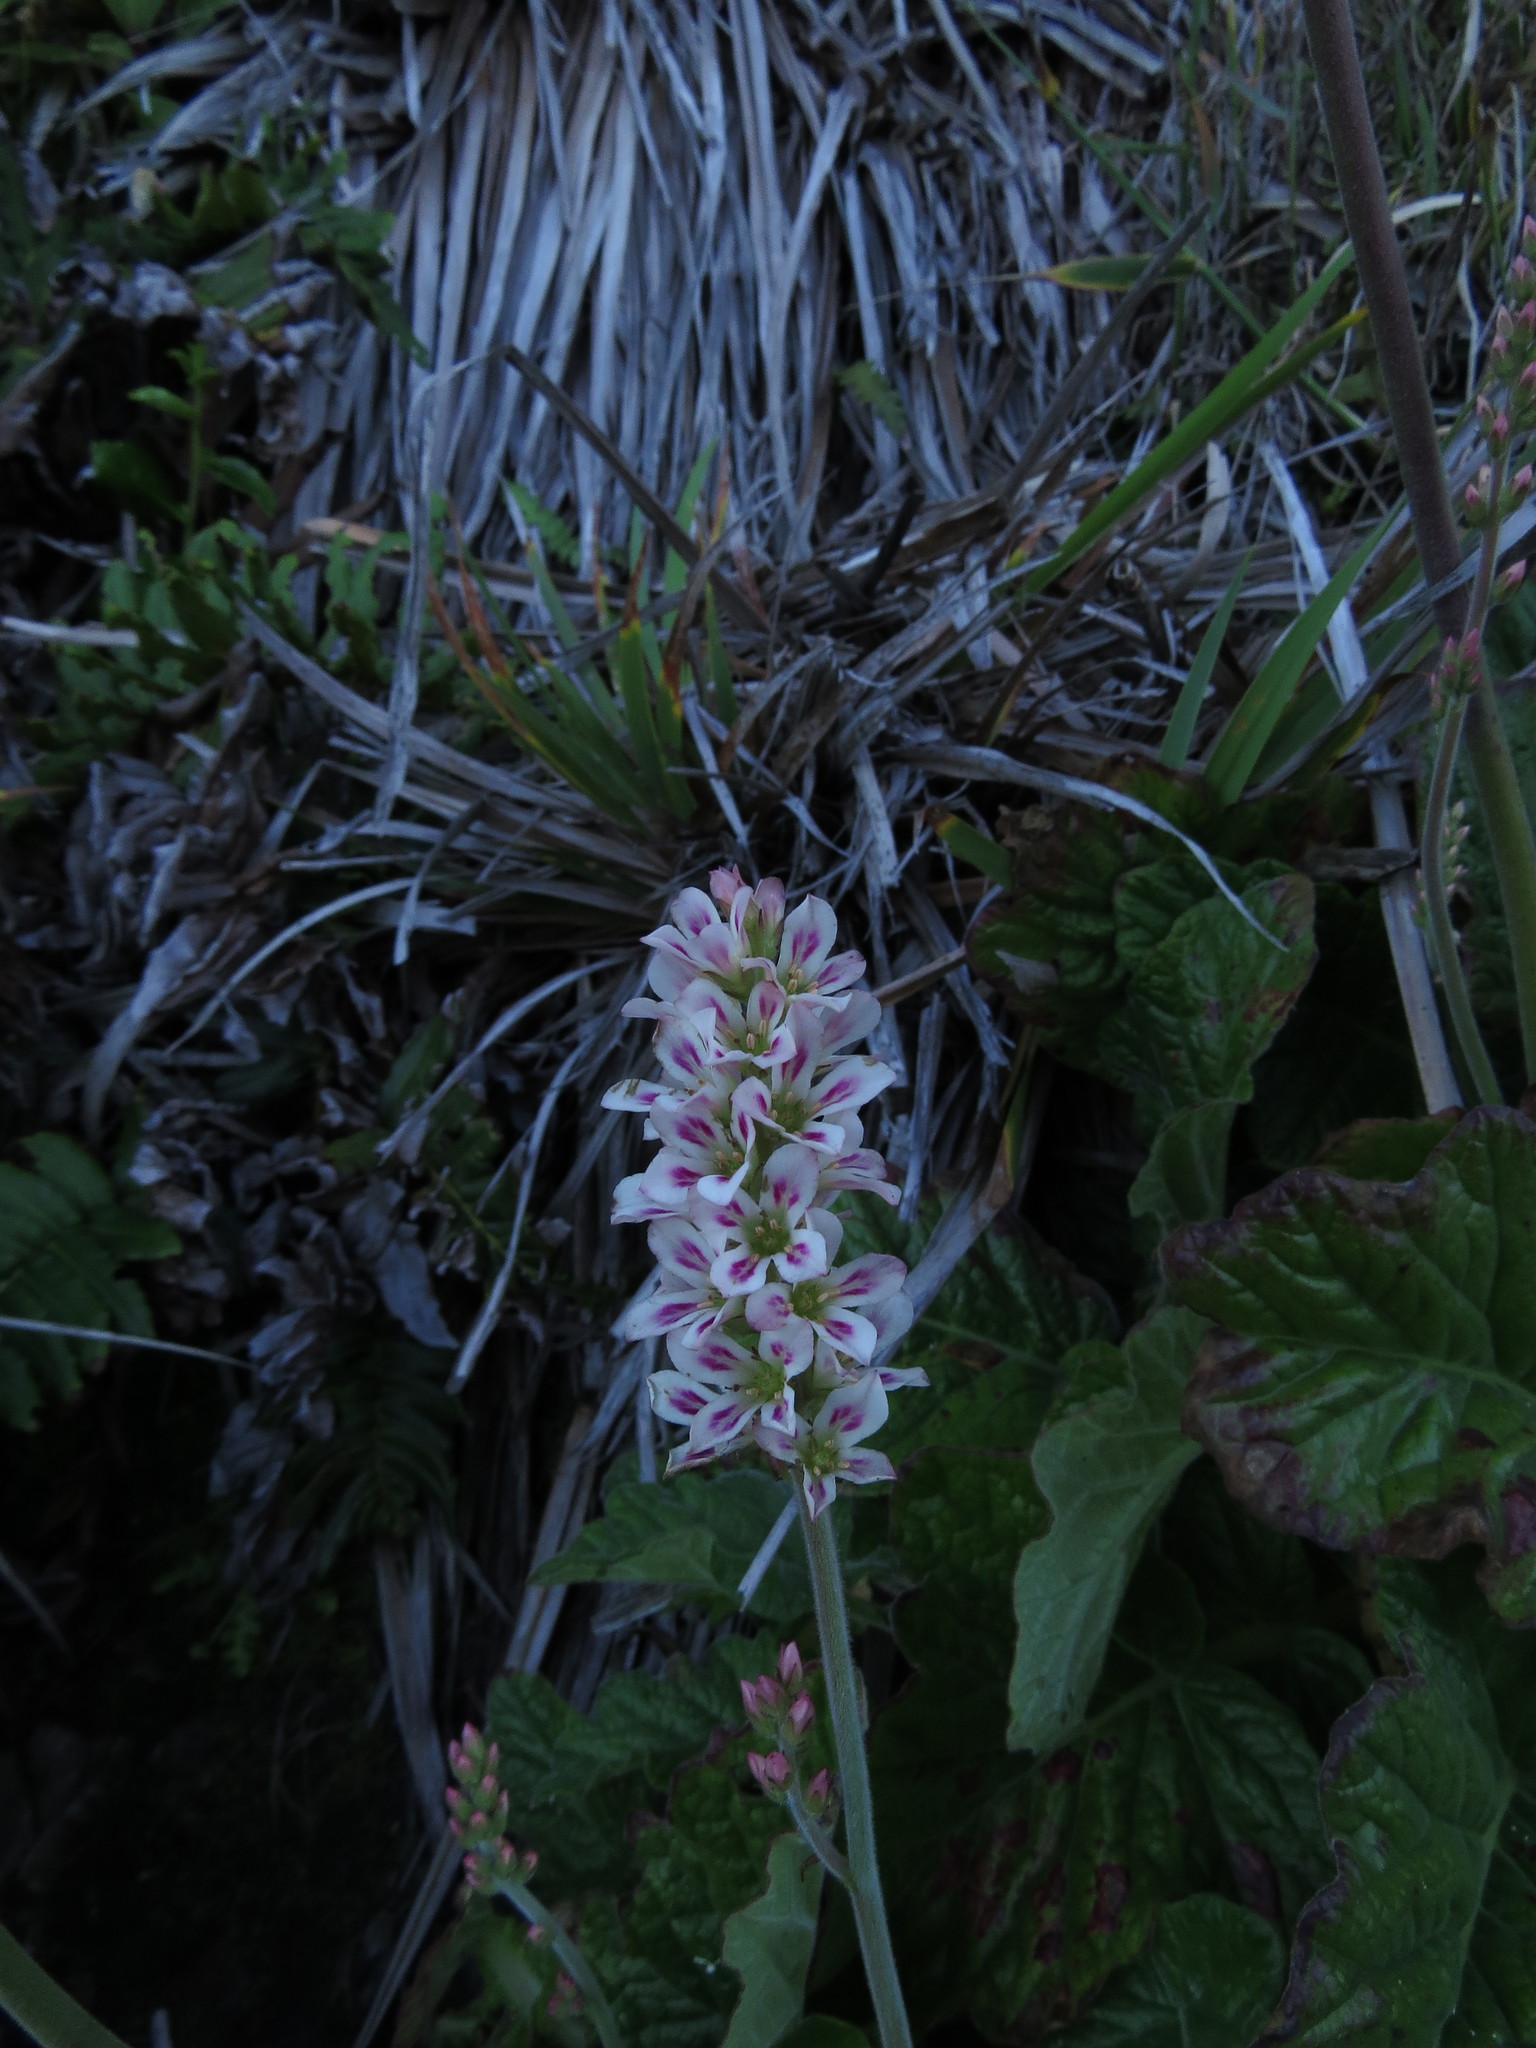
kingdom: Plantae
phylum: Tracheophyta
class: Magnoliopsida
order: Geraniales
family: Francoaceae
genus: Francoa
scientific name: Francoa appendiculata
